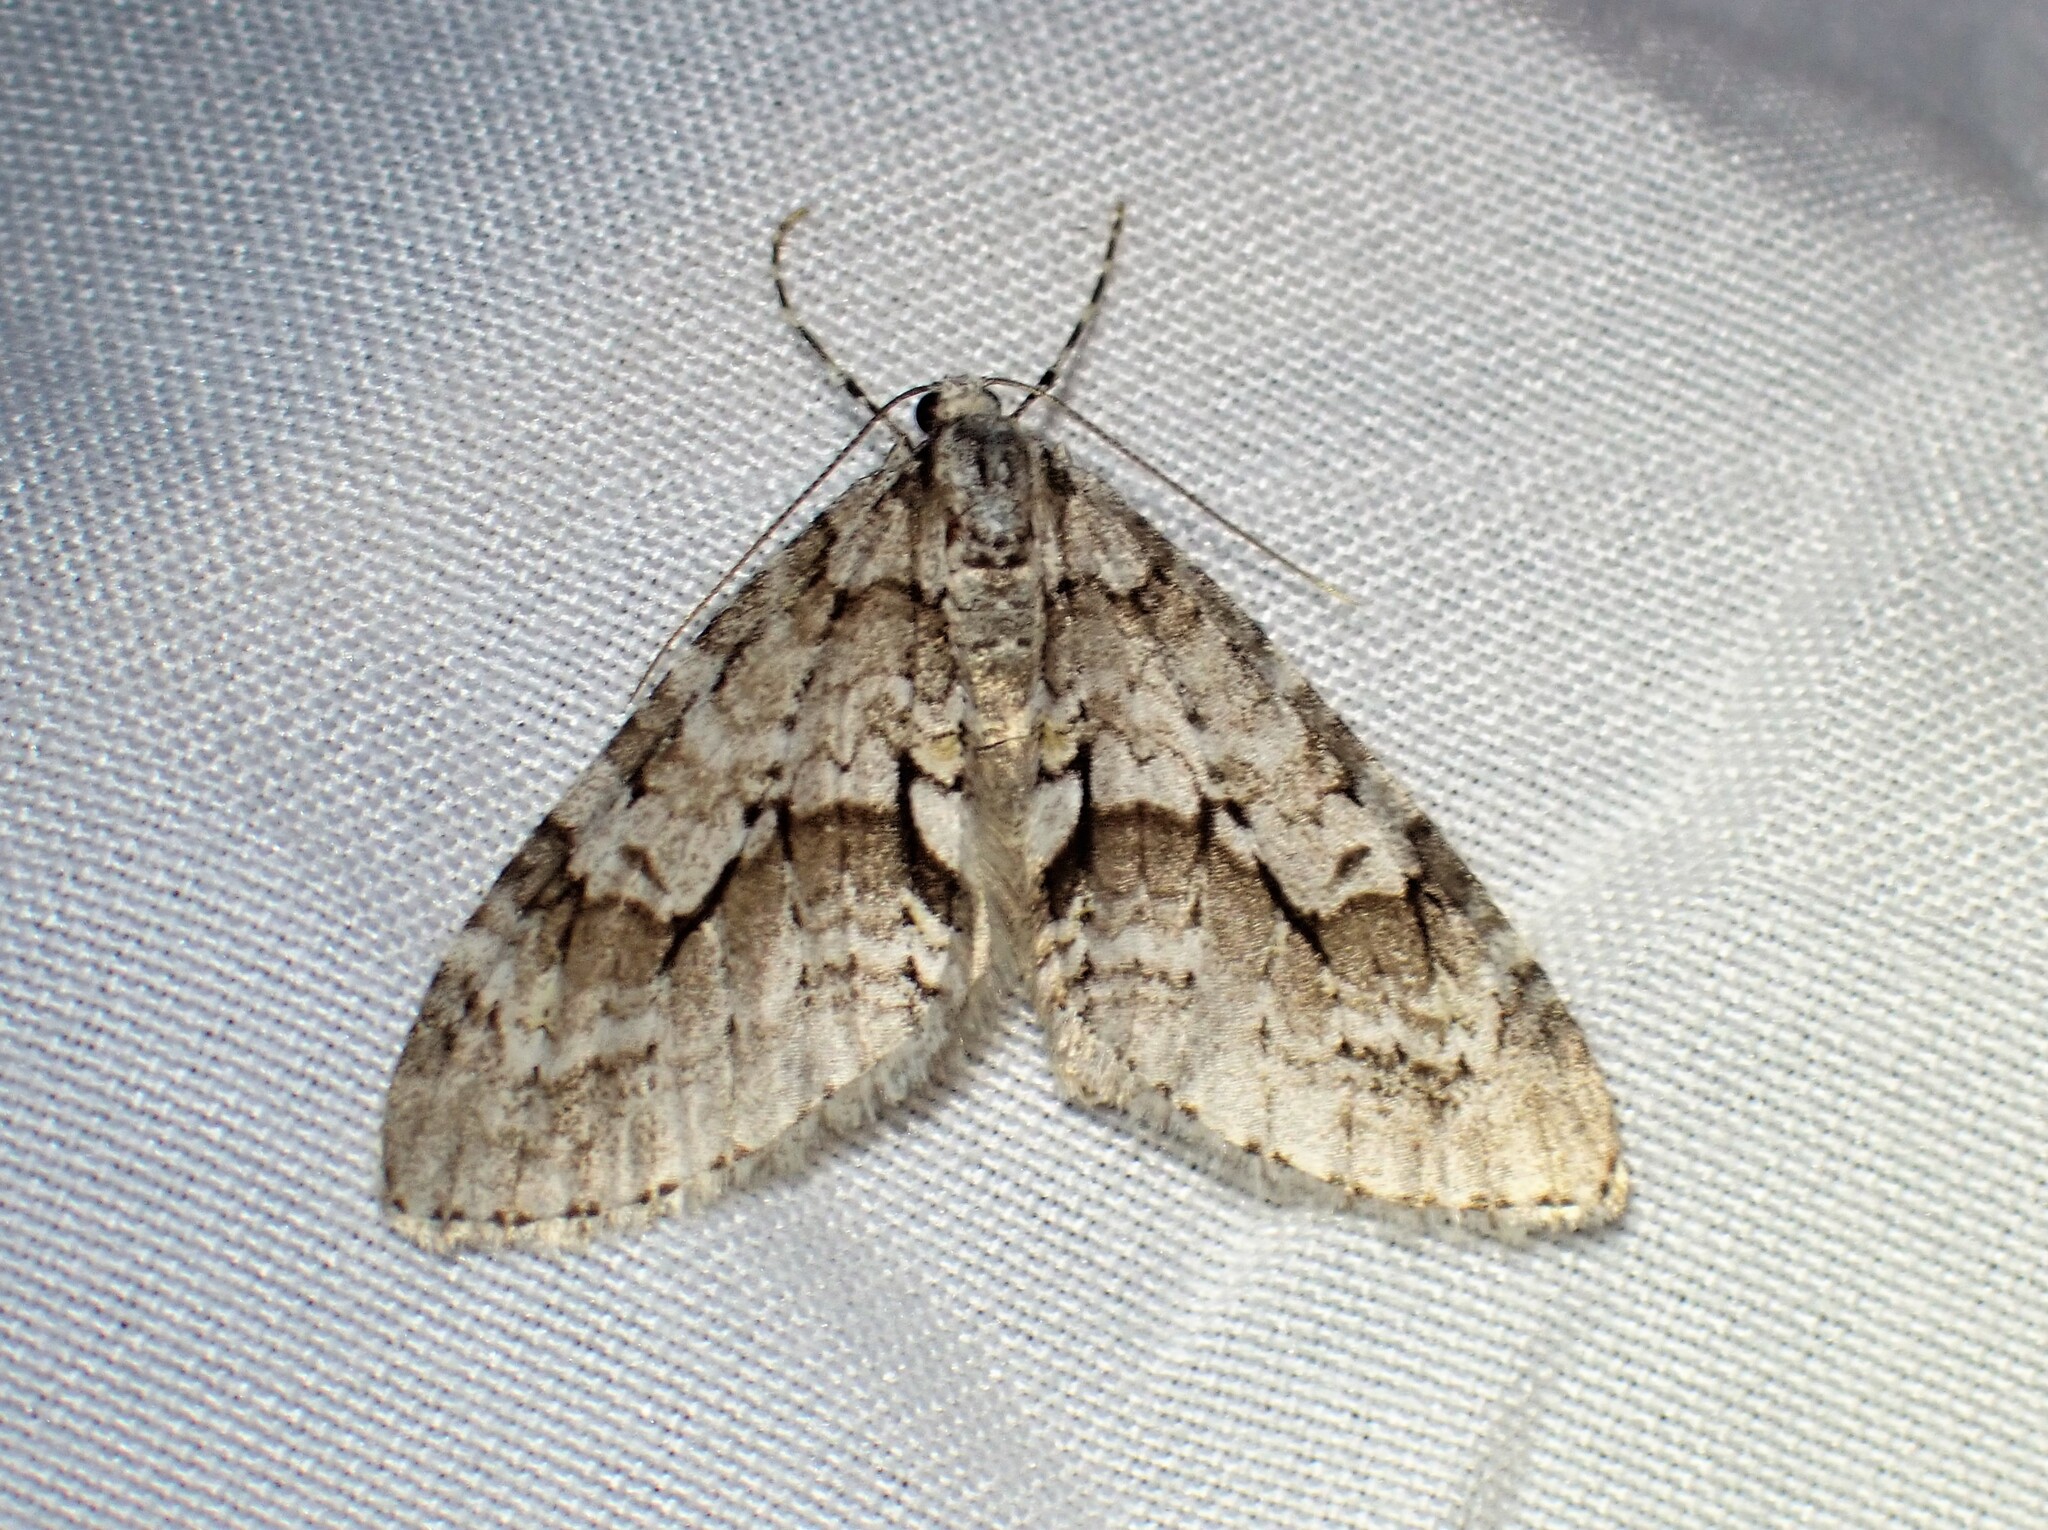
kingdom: Animalia
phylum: Arthropoda
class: Insecta
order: Lepidoptera
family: Geometridae
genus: Cladara
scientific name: Cladara limitaria
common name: Mottled gray carpet
